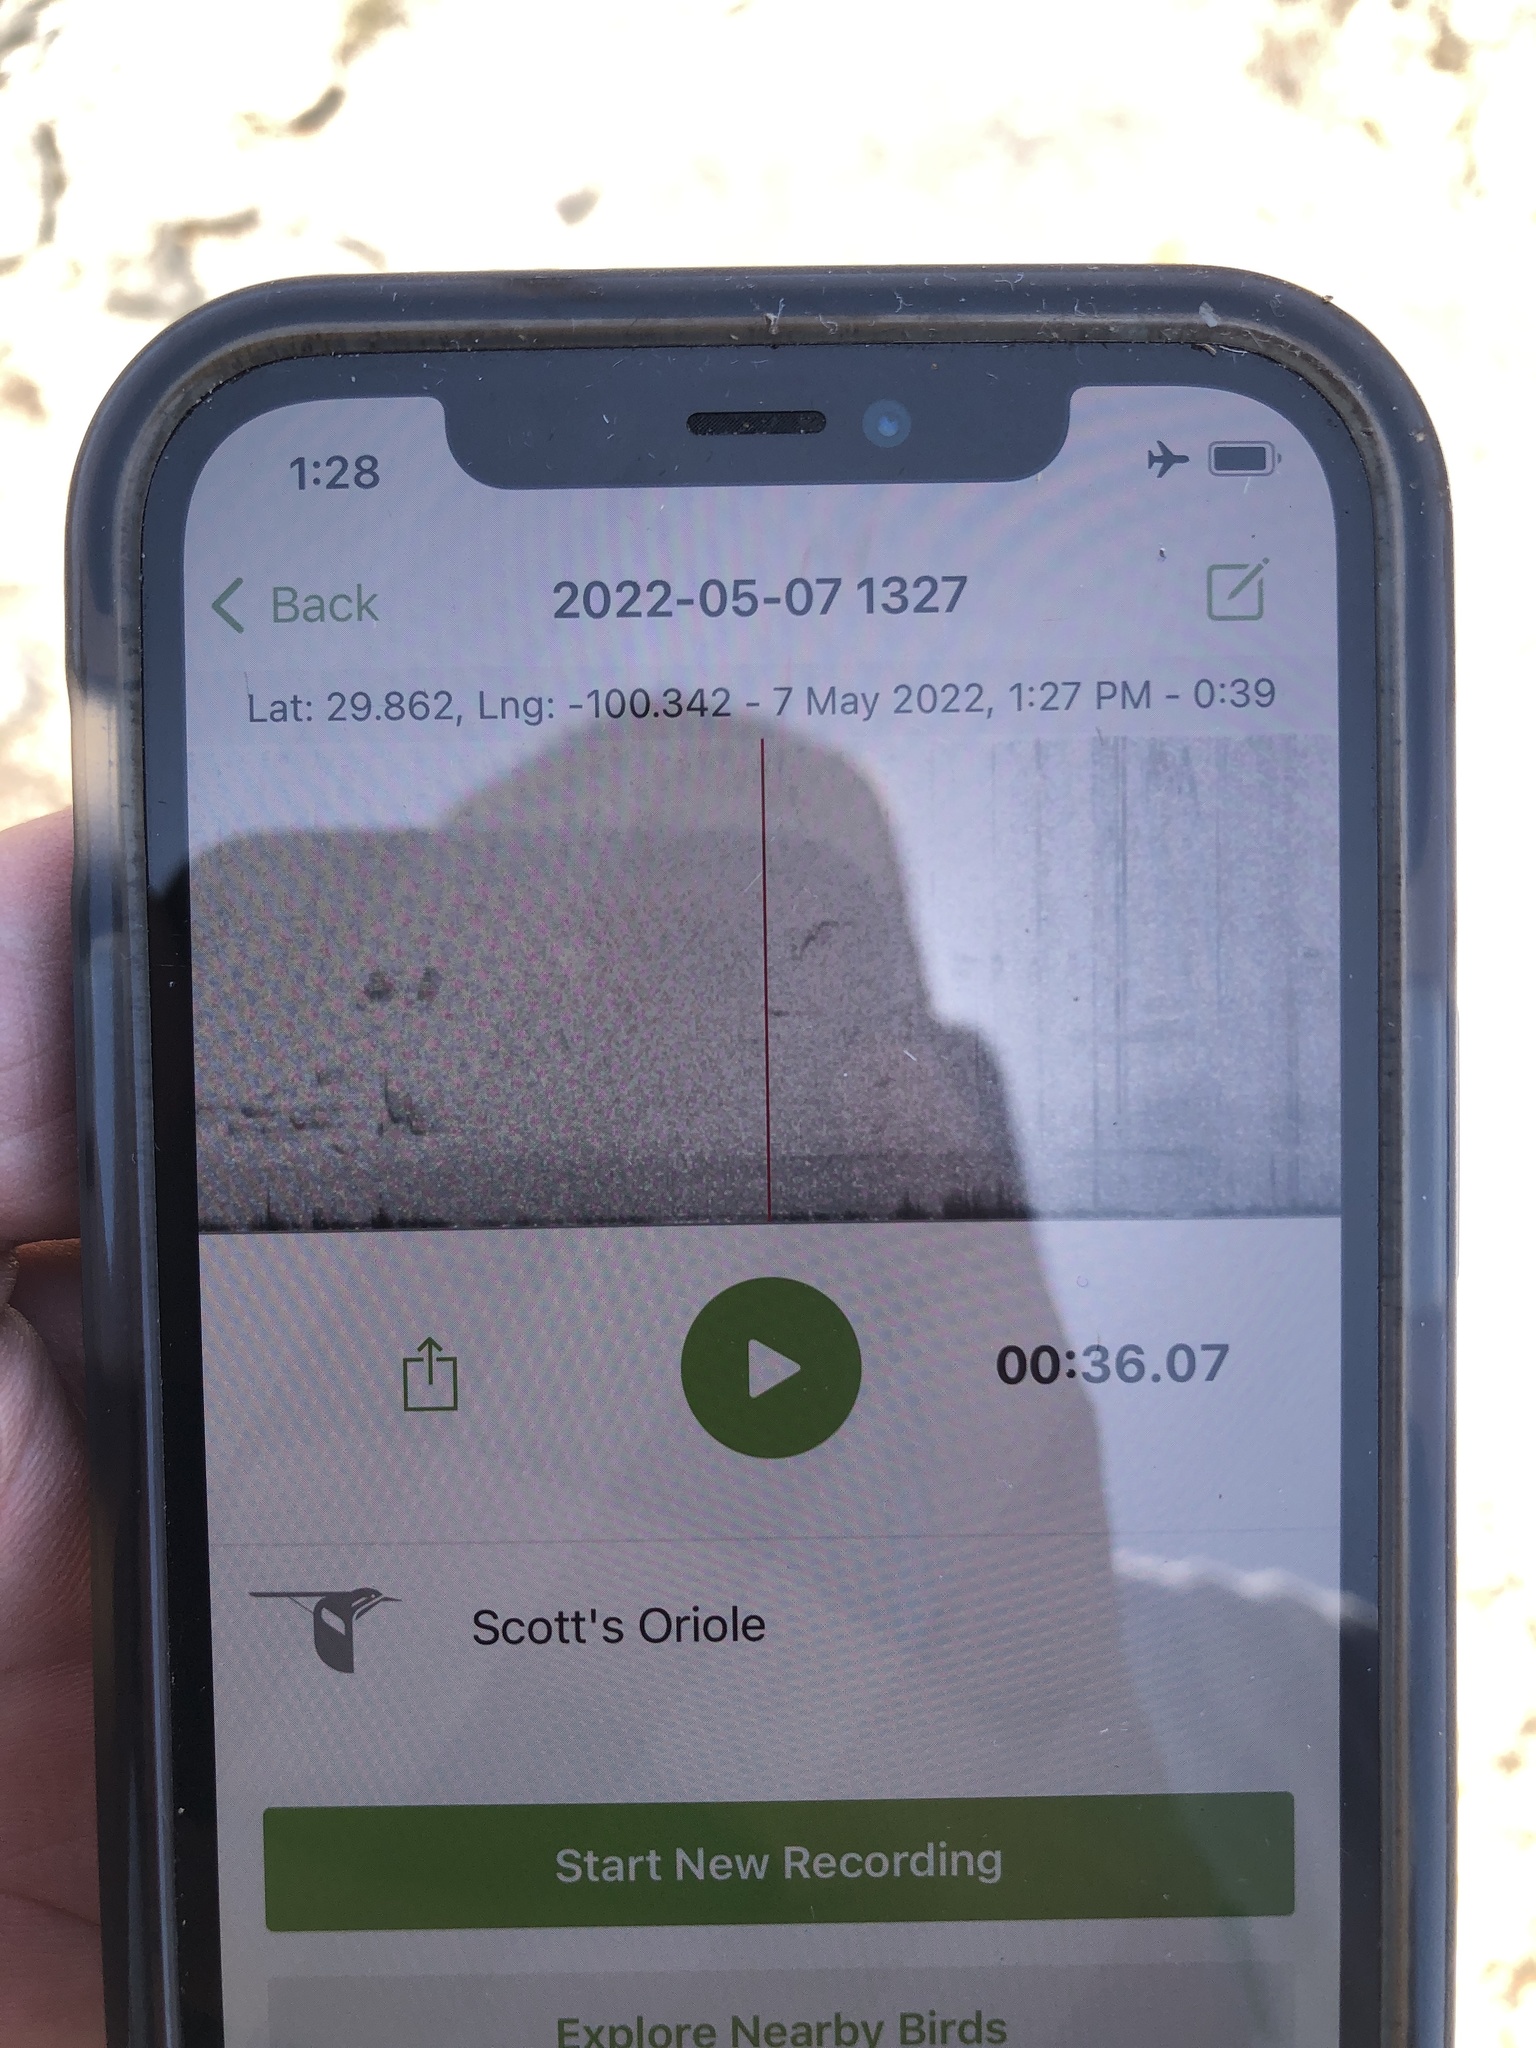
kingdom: Animalia
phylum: Chordata
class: Aves
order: Passeriformes
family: Icteridae
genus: Icterus
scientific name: Icterus parisorum
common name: Scott's oriole
